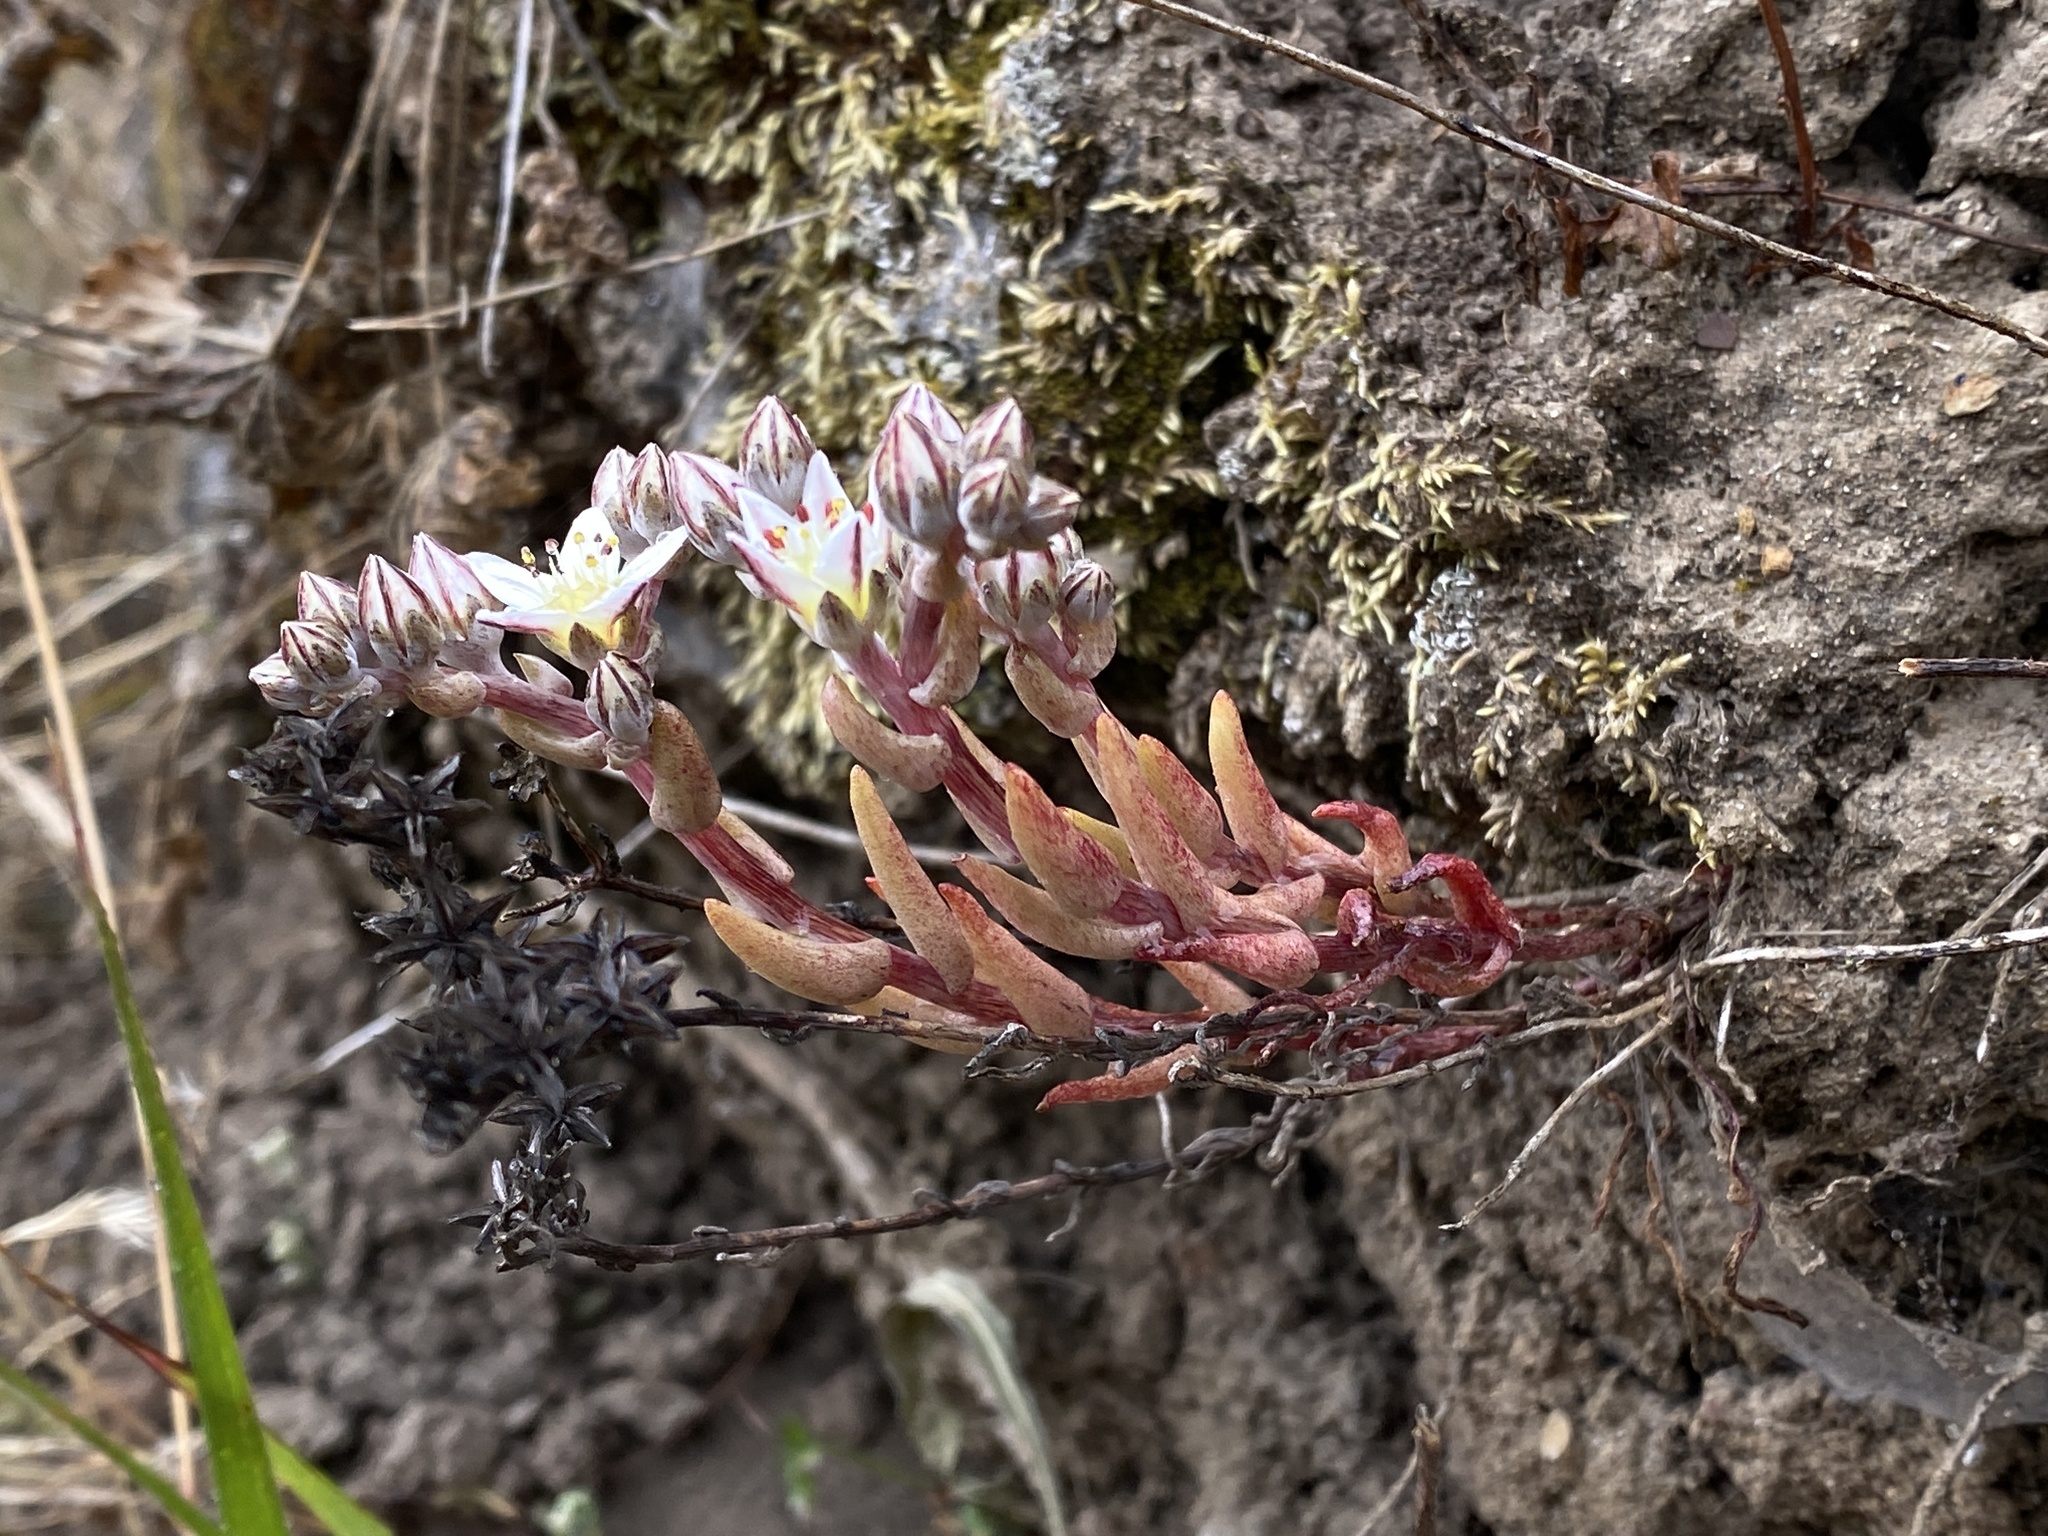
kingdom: Plantae
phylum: Tracheophyta
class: Magnoliopsida
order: Saxifragales
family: Crassulaceae
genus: Dudleya
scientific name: Dudleya blochmaniae
